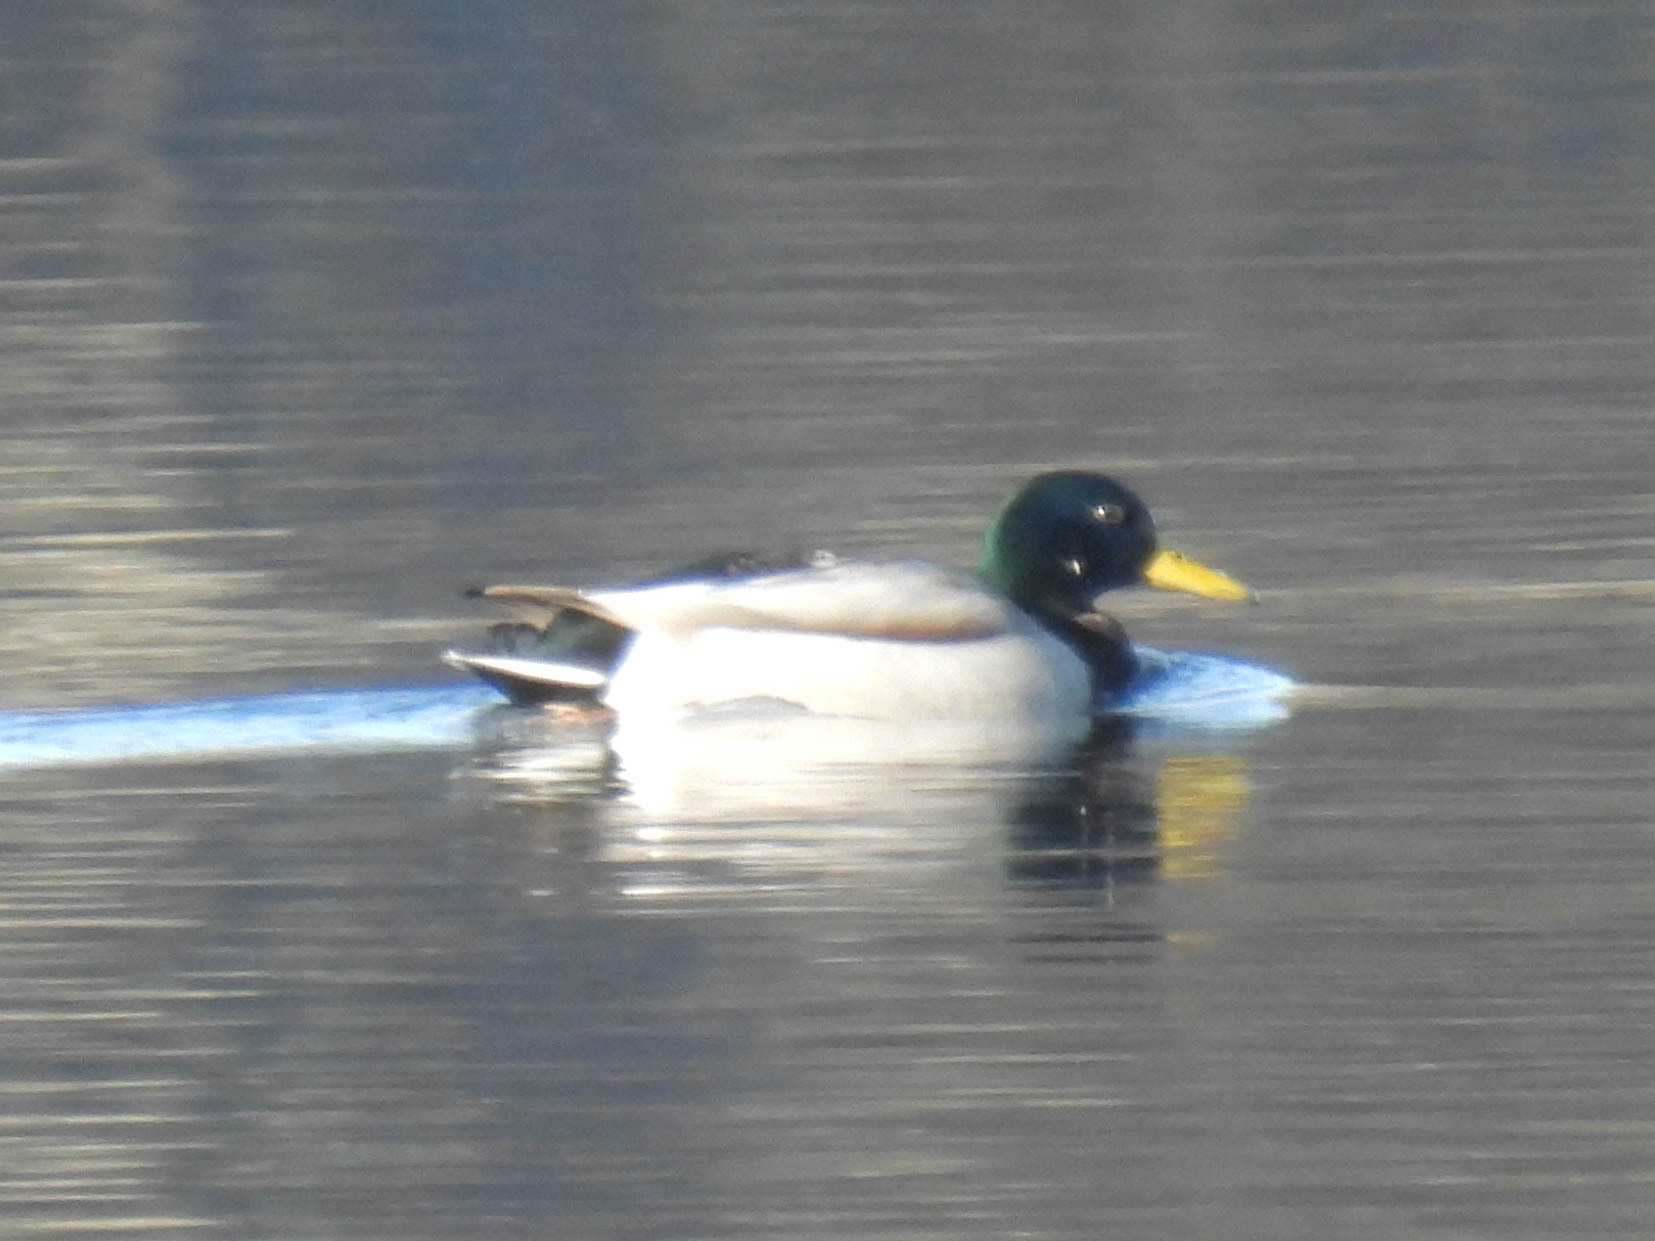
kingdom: Animalia
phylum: Chordata
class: Aves
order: Anseriformes
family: Anatidae
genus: Anas
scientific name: Anas platyrhynchos
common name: Mallard
